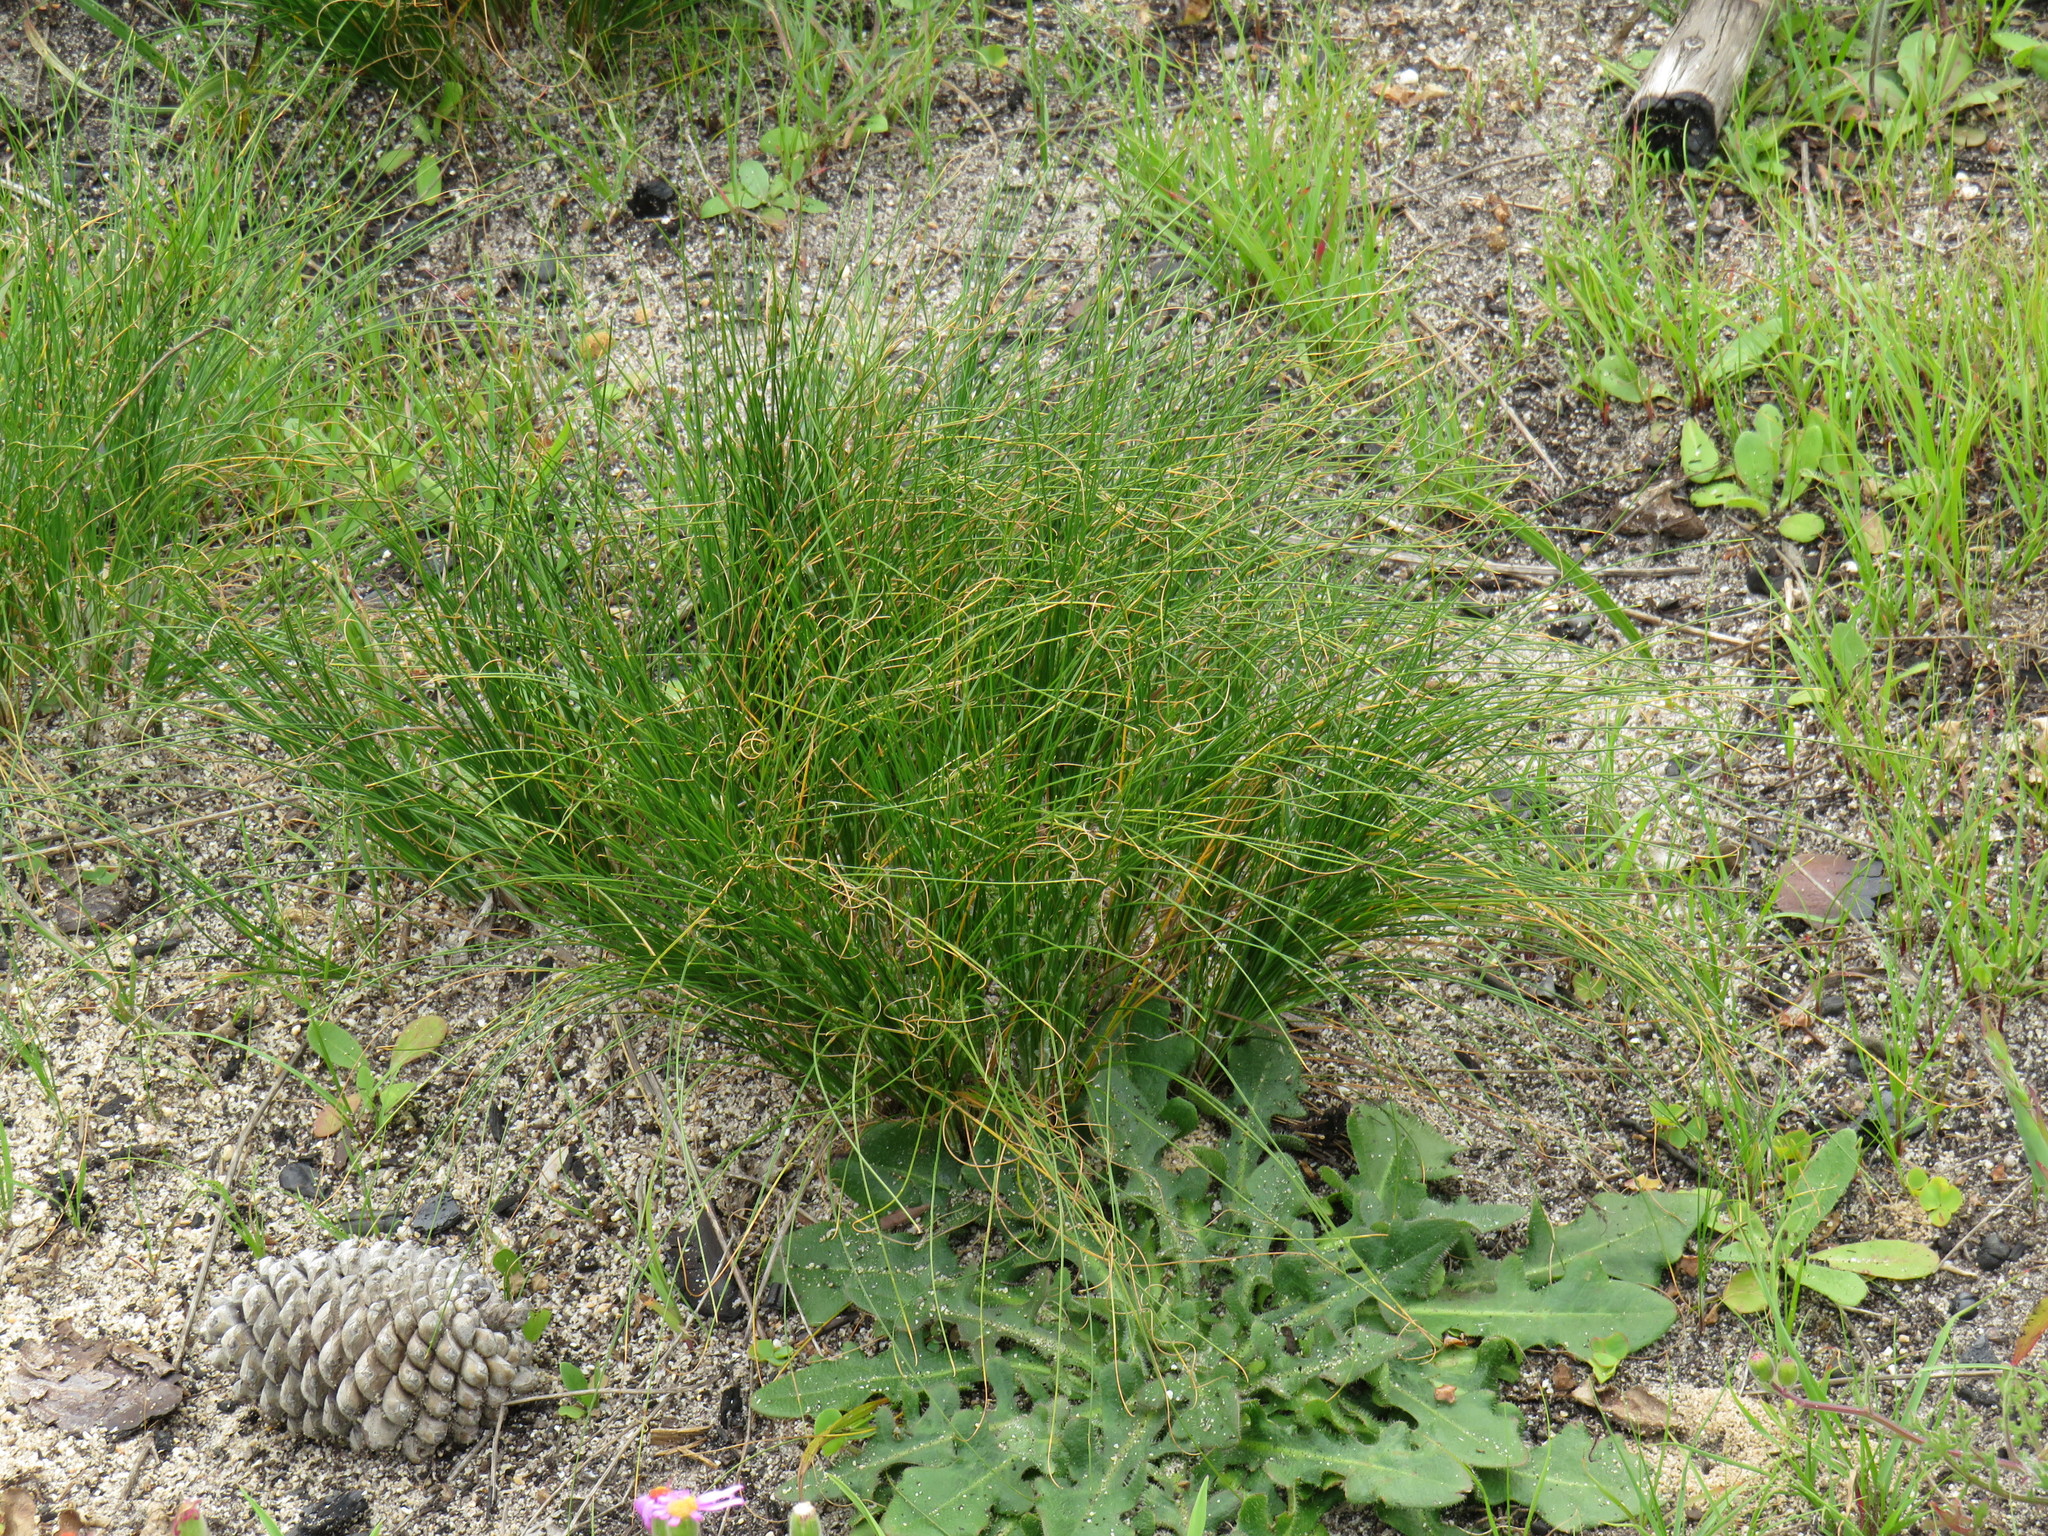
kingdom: Plantae
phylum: Tracheophyta
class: Liliopsida
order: Poales
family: Cyperaceae
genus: Ficinia
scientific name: Ficinia secunda
